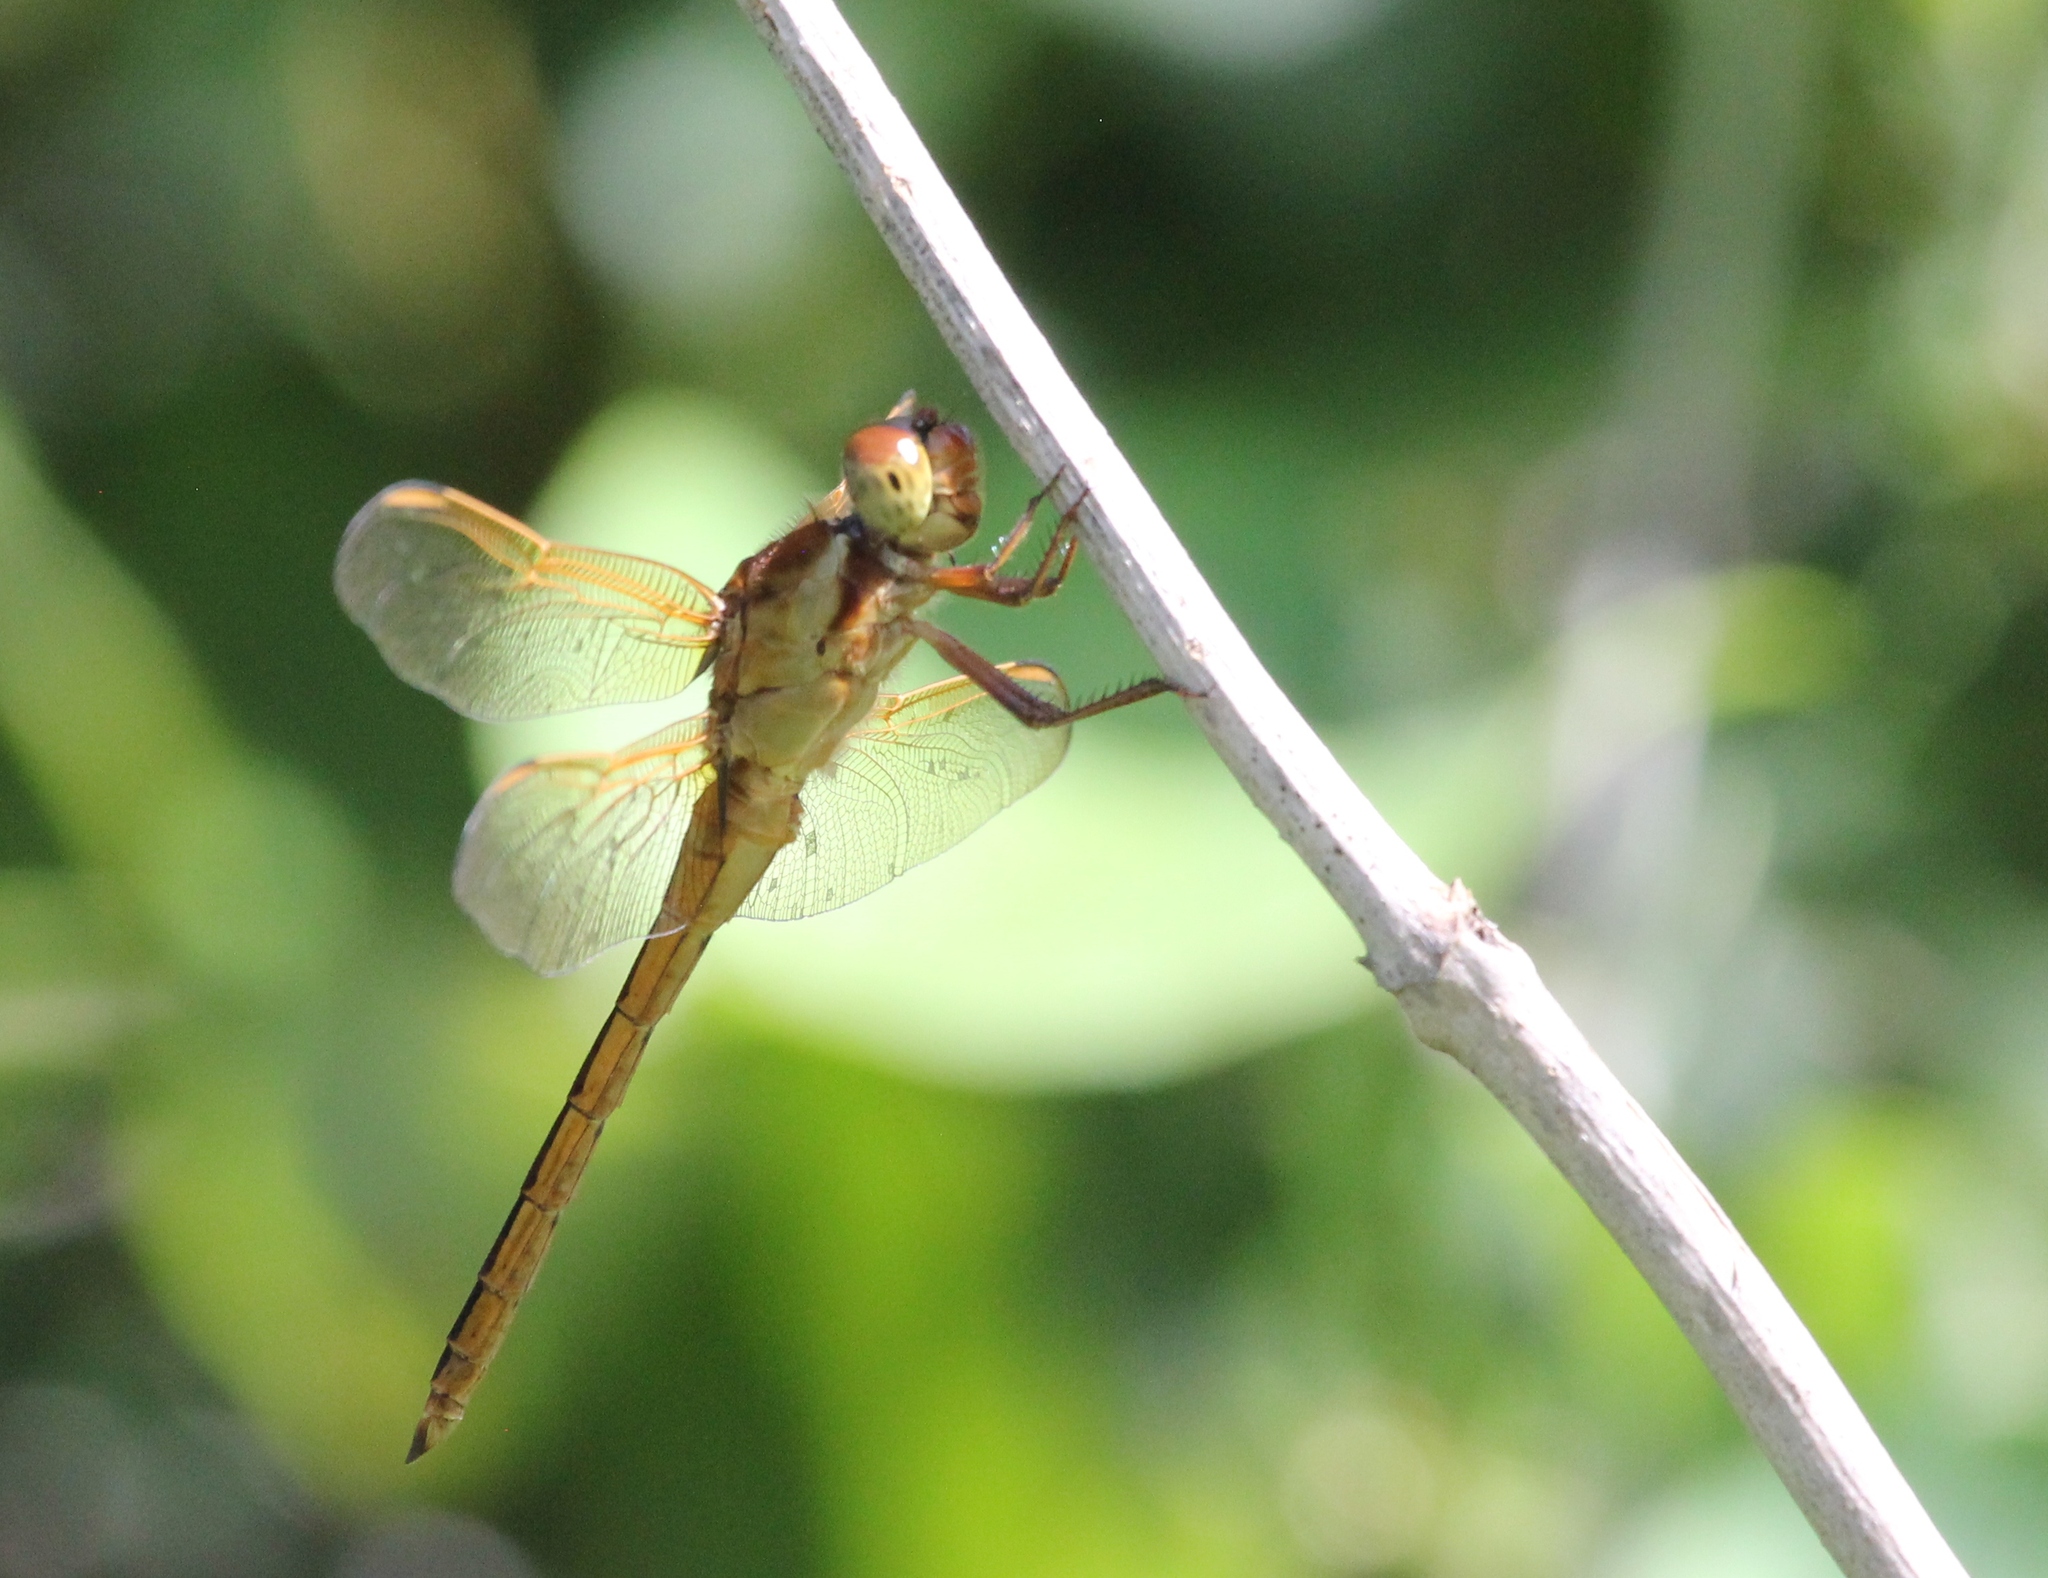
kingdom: Animalia
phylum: Arthropoda
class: Insecta
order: Odonata
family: Libellulidae
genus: Libellula
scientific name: Libellula needhami
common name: Needham's skimmer
